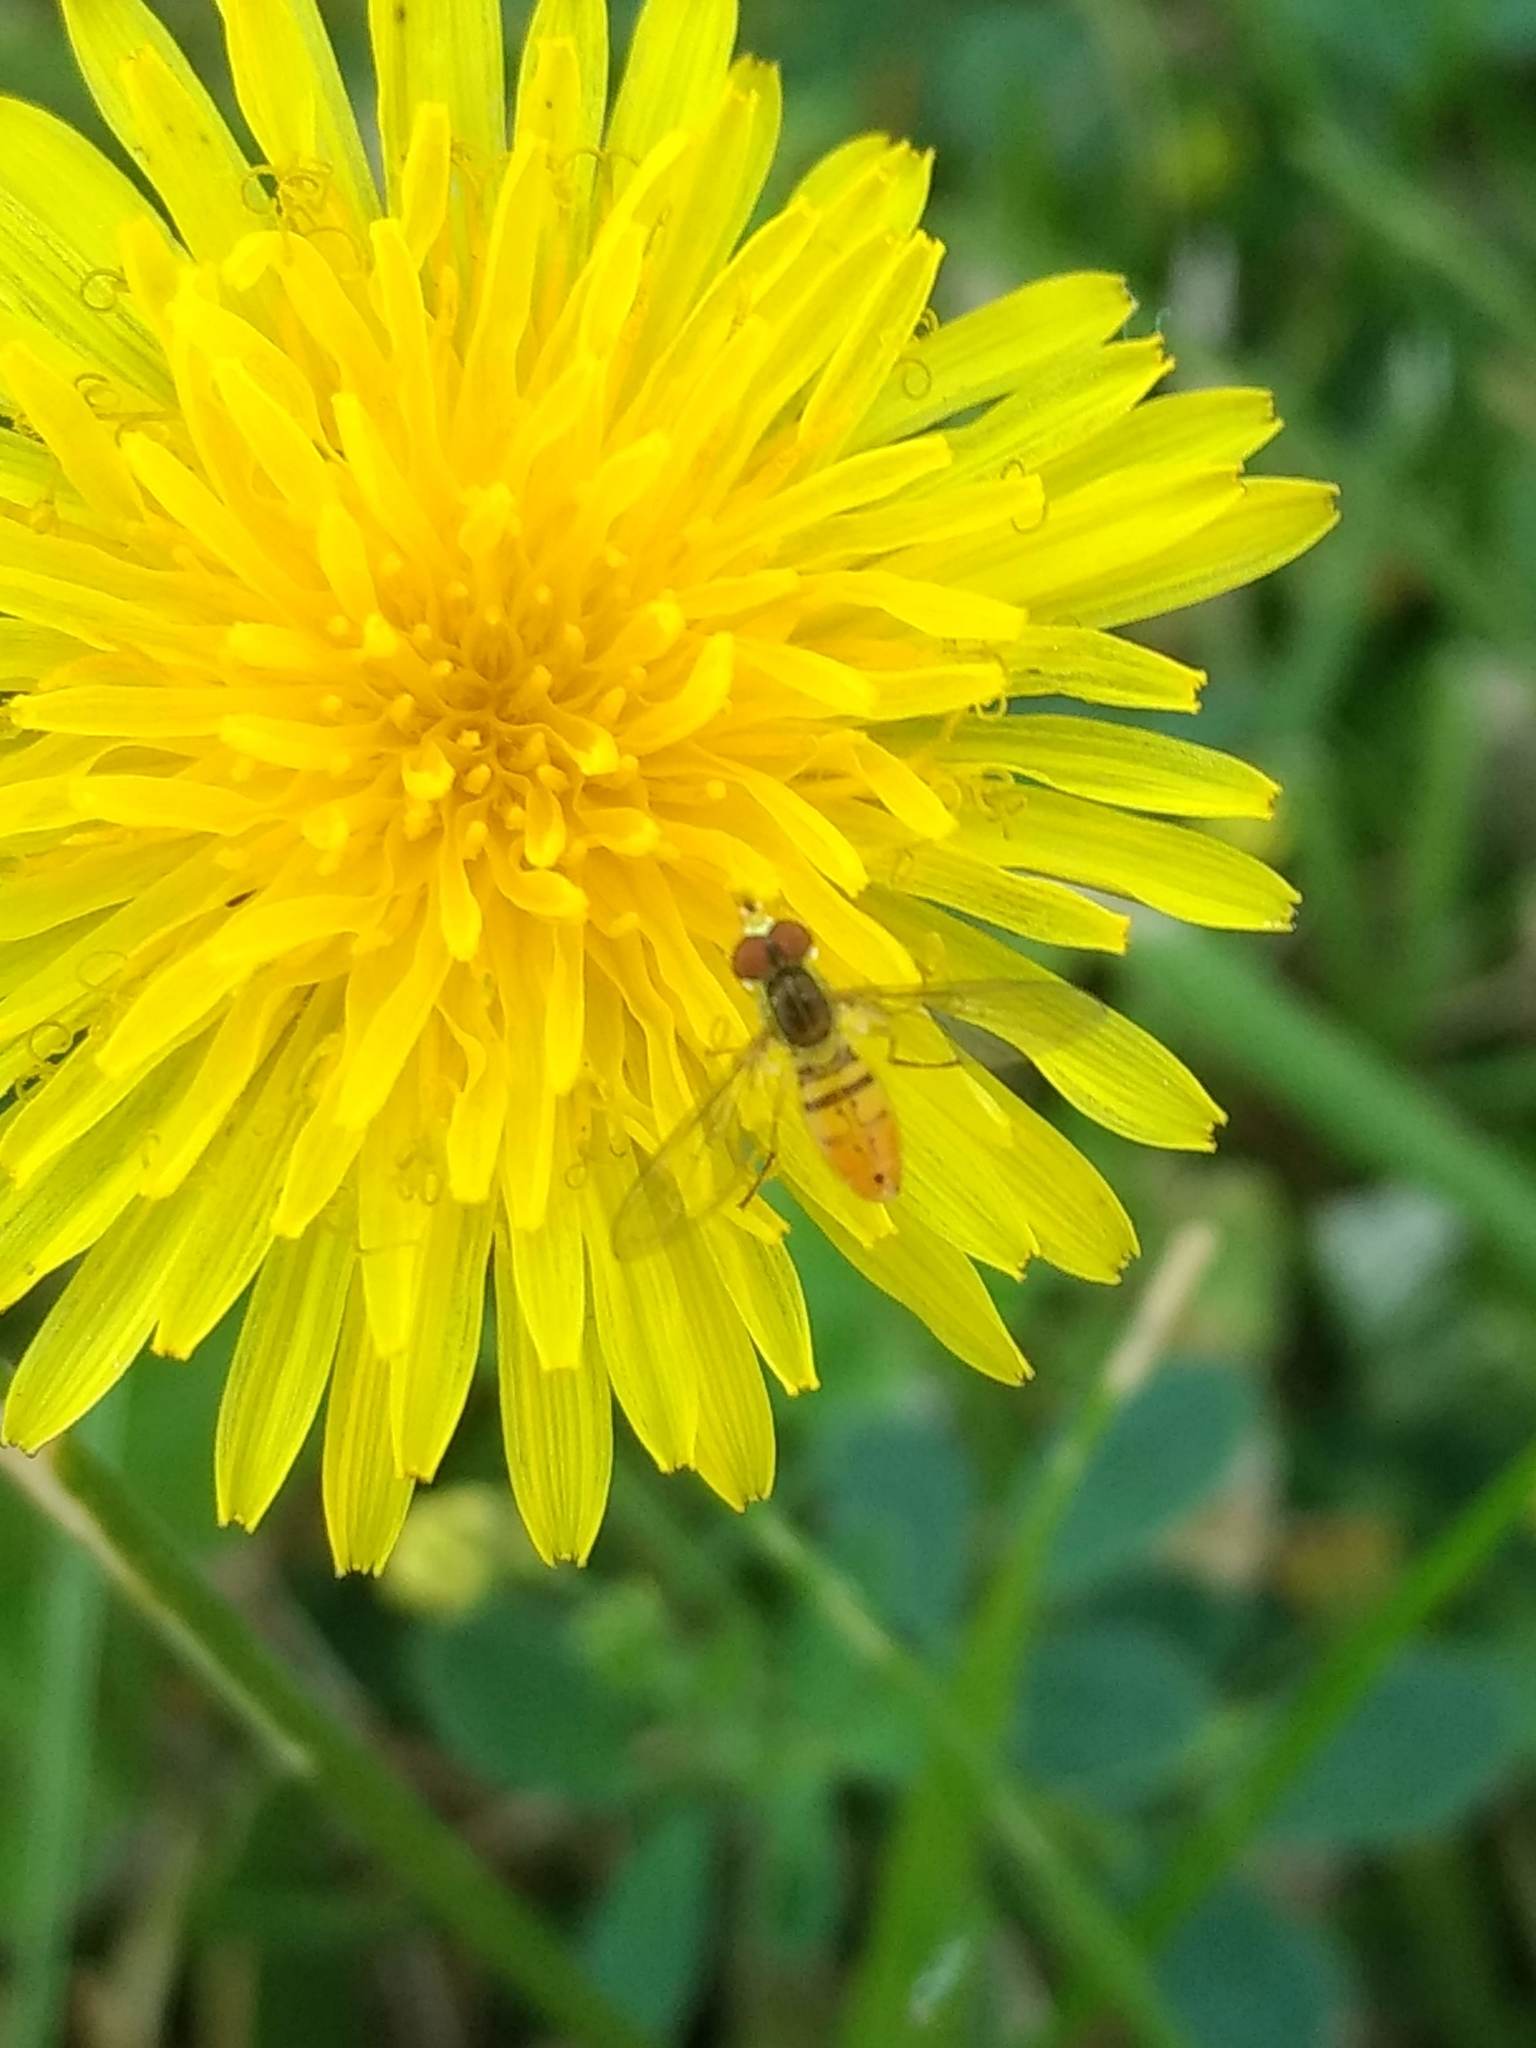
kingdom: Animalia
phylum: Arthropoda
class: Insecta
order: Diptera
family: Syrphidae
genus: Toxomerus
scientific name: Toxomerus marginatus
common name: Syrphid fly
